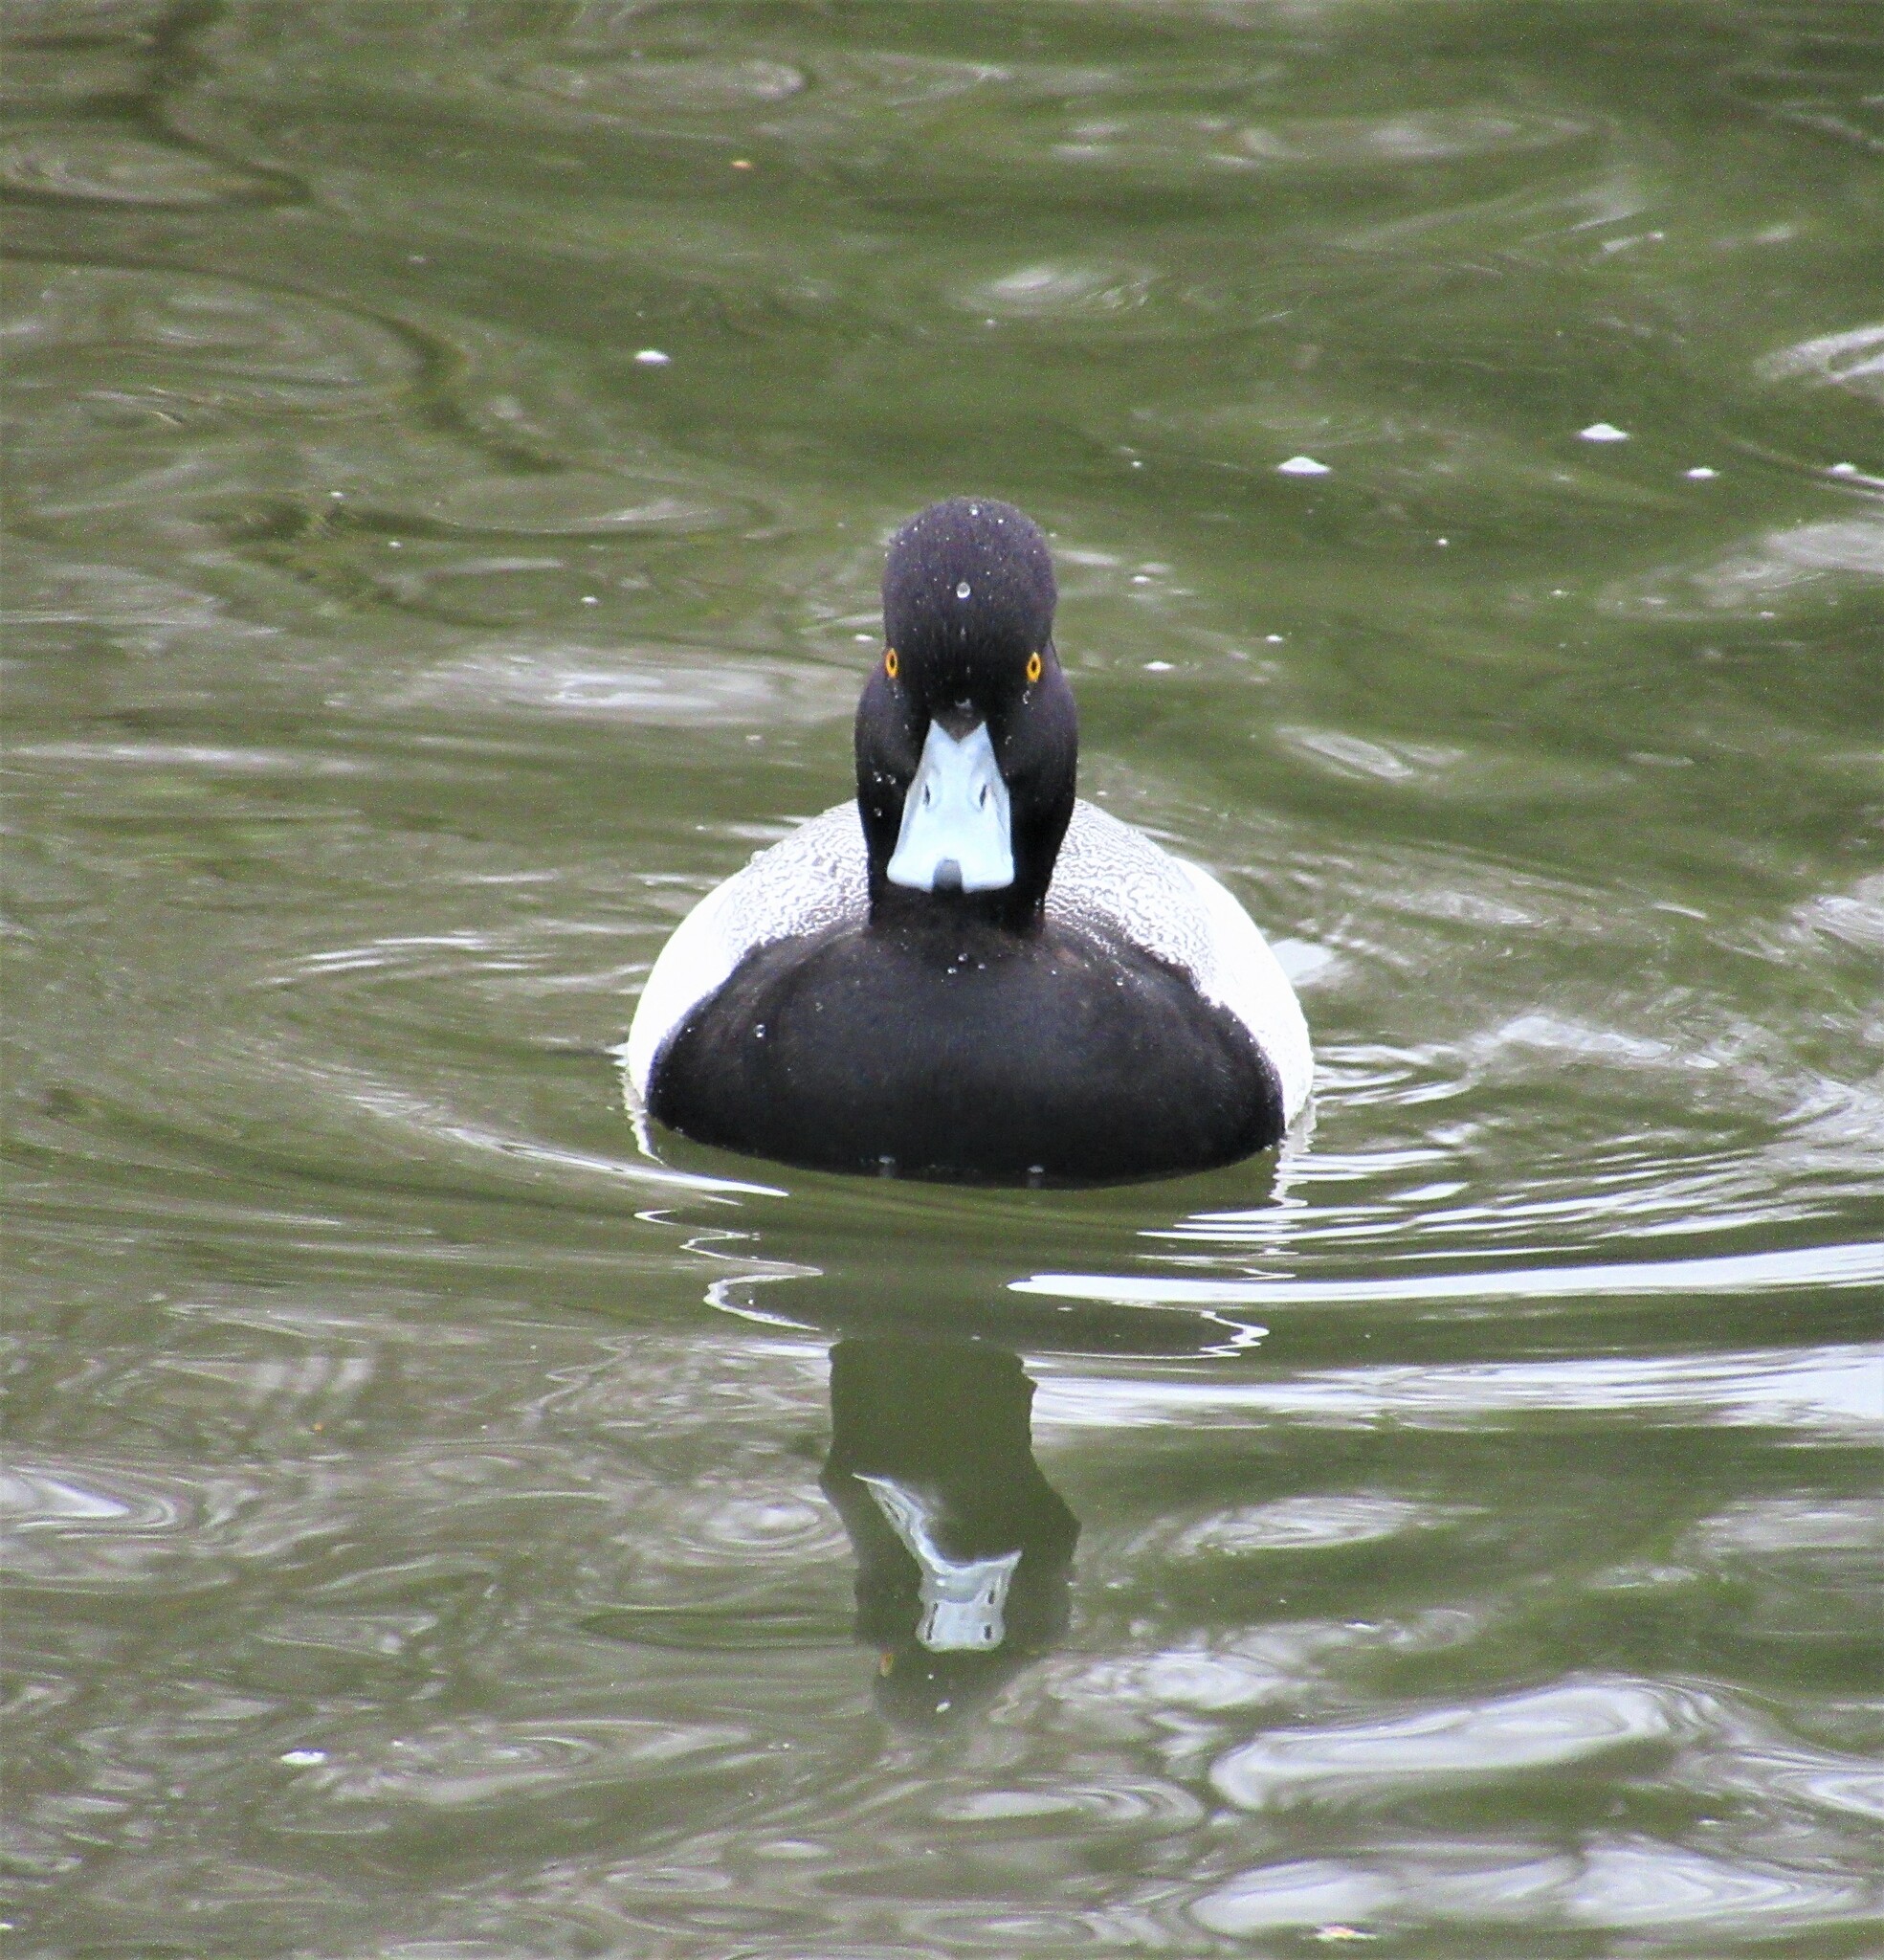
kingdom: Animalia
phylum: Chordata
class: Aves
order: Anseriformes
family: Anatidae
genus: Aythya
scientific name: Aythya affinis
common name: Lesser scaup
